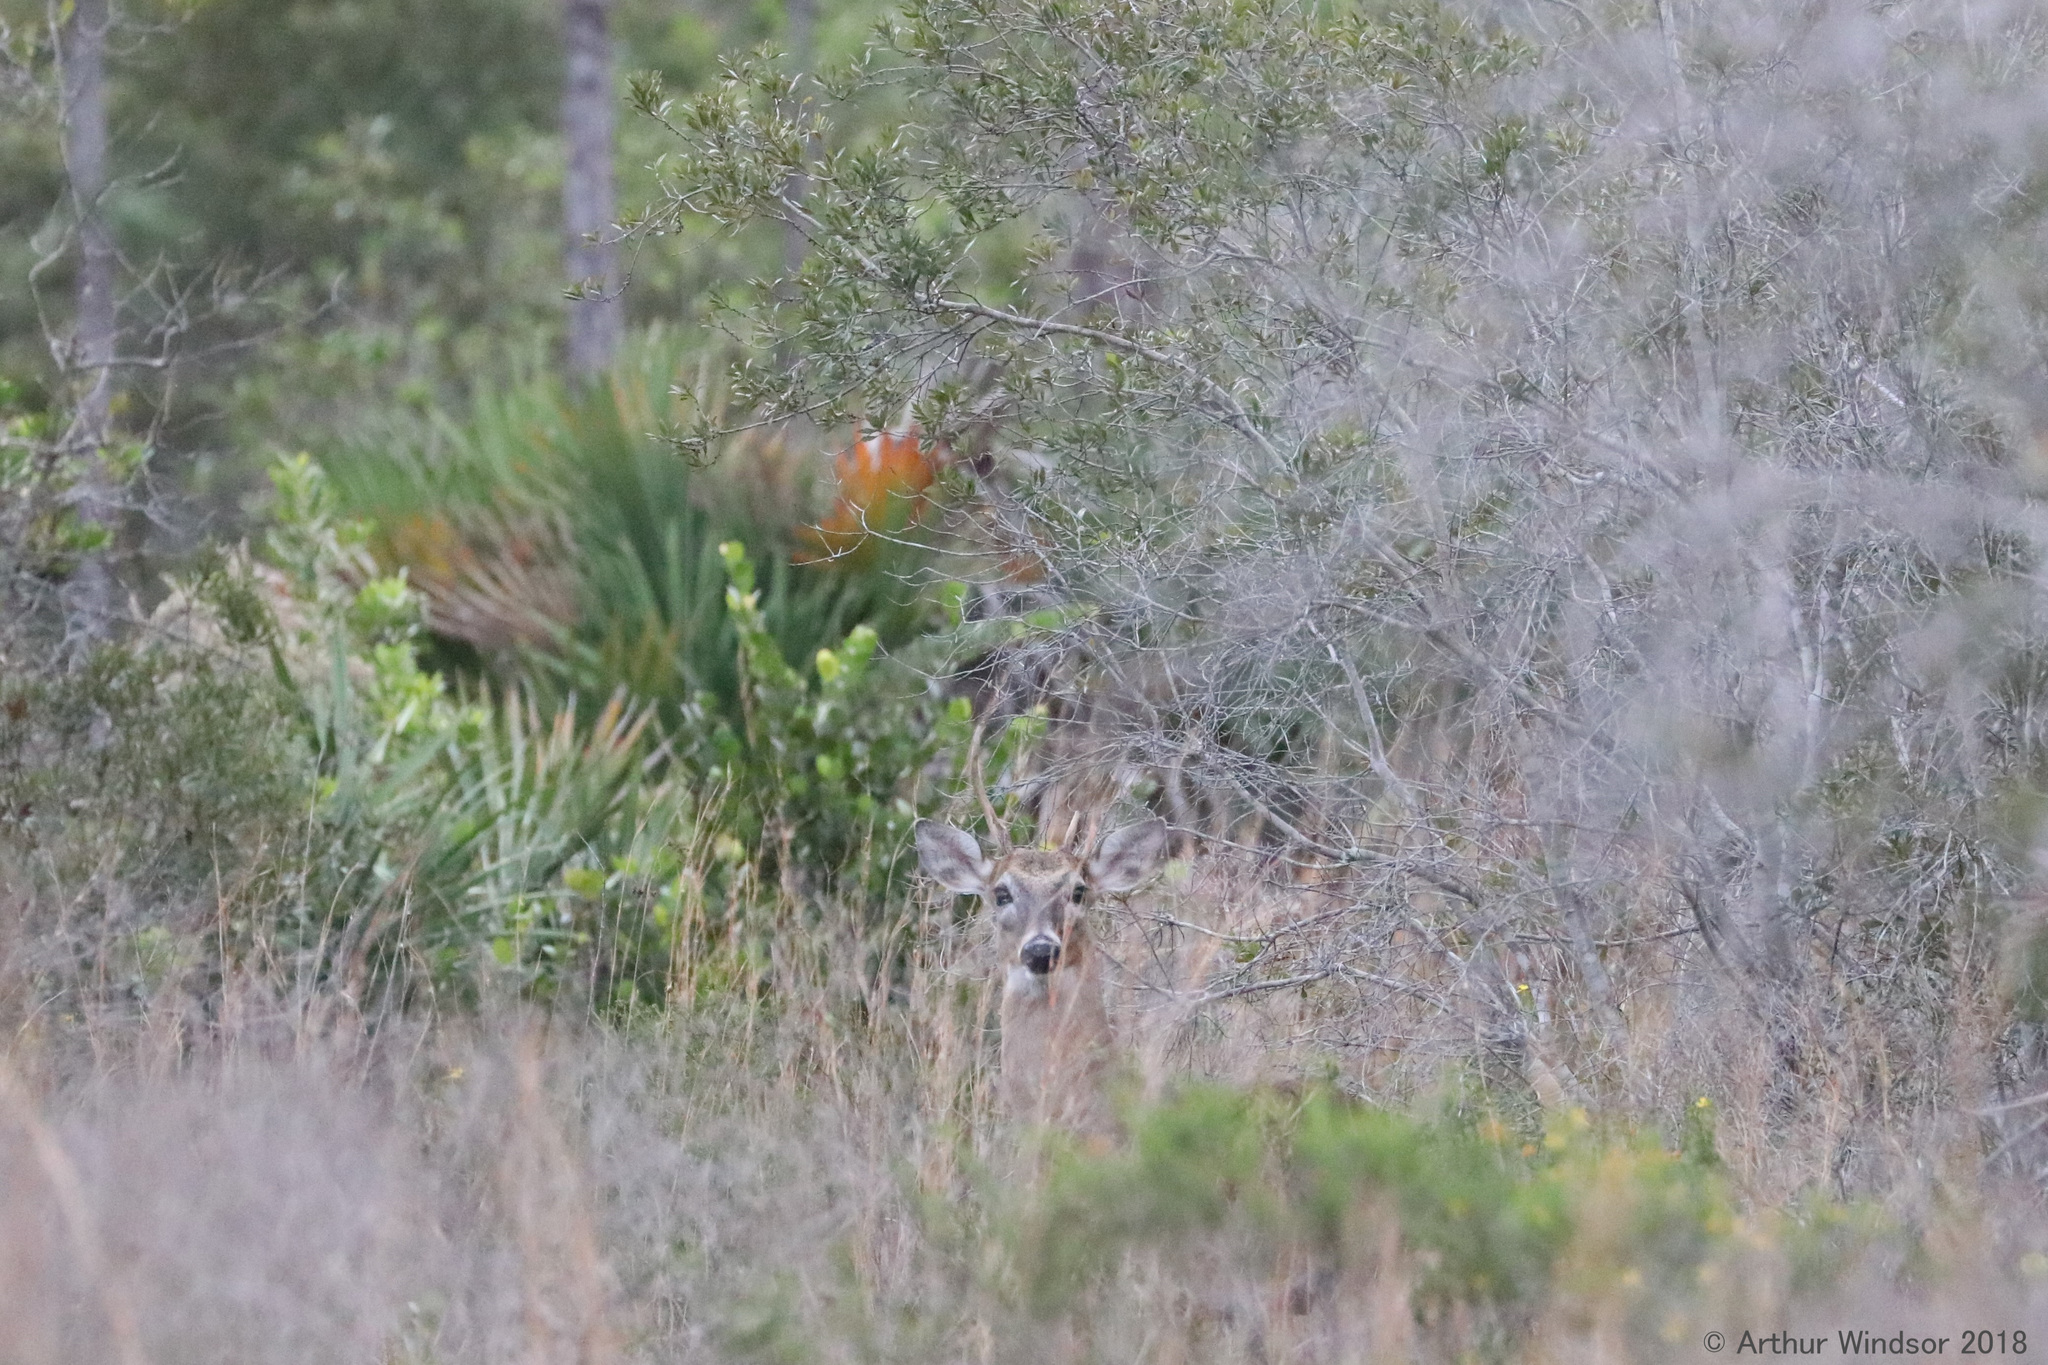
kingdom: Animalia
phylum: Chordata
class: Mammalia
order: Artiodactyla
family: Cervidae
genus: Odocoileus
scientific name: Odocoileus virginianus
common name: White-tailed deer
